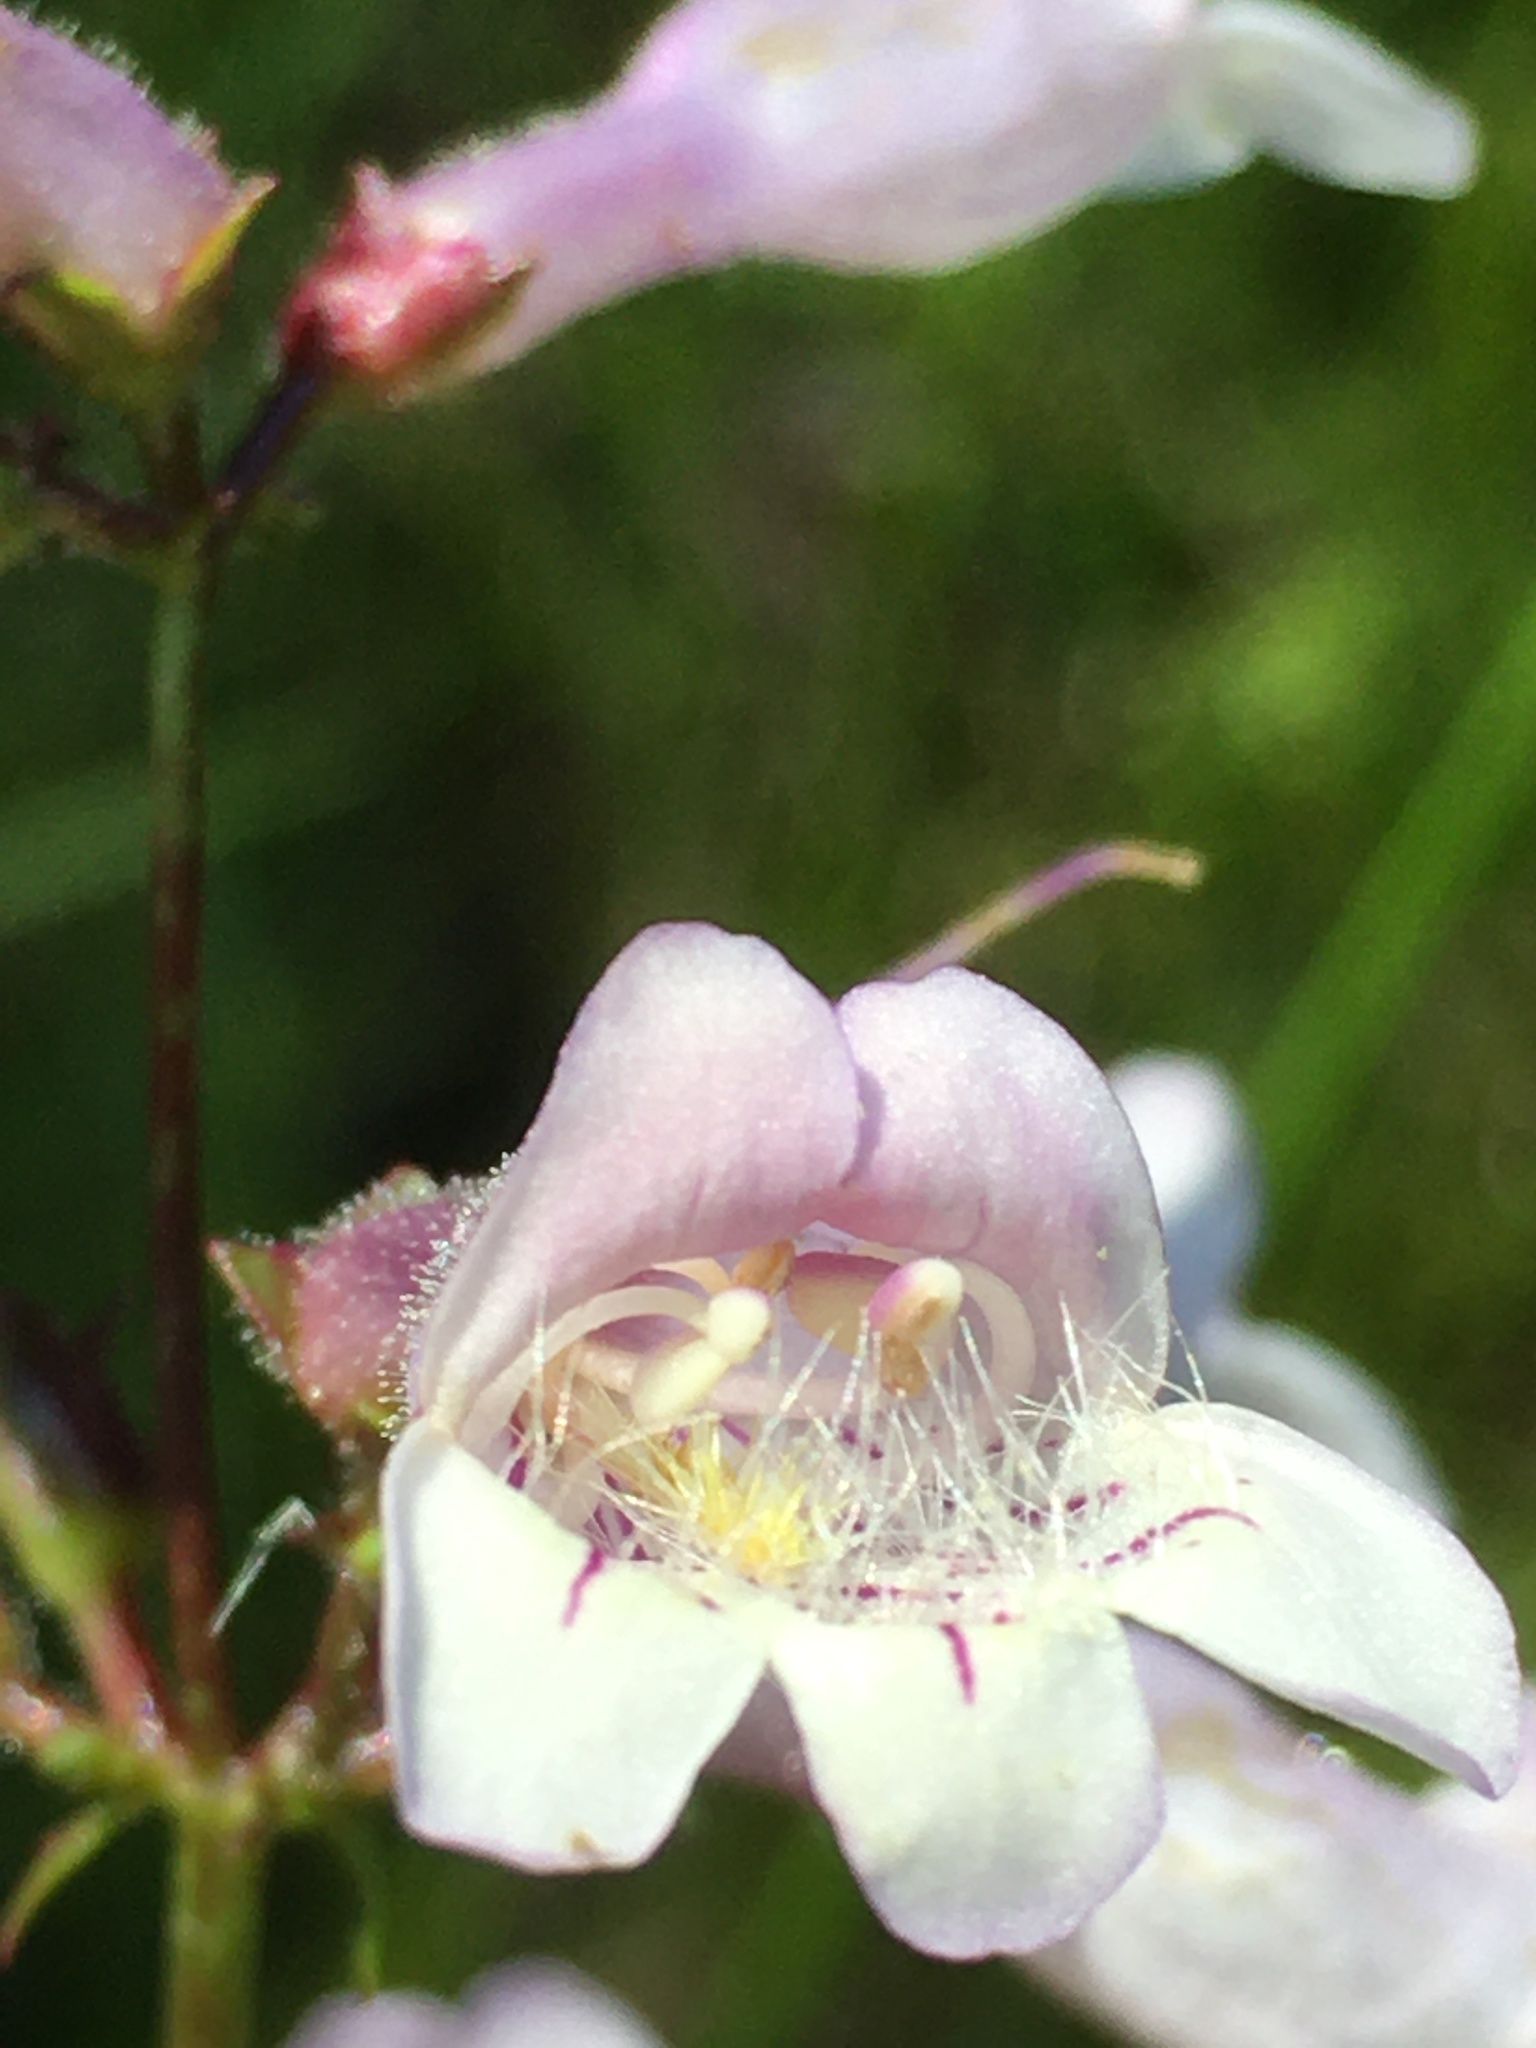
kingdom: Plantae
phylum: Tracheophyta
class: Magnoliopsida
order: Lamiales
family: Plantaginaceae
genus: Penstemon
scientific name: Penstemon laevigatus
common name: Eastern beardtongue
